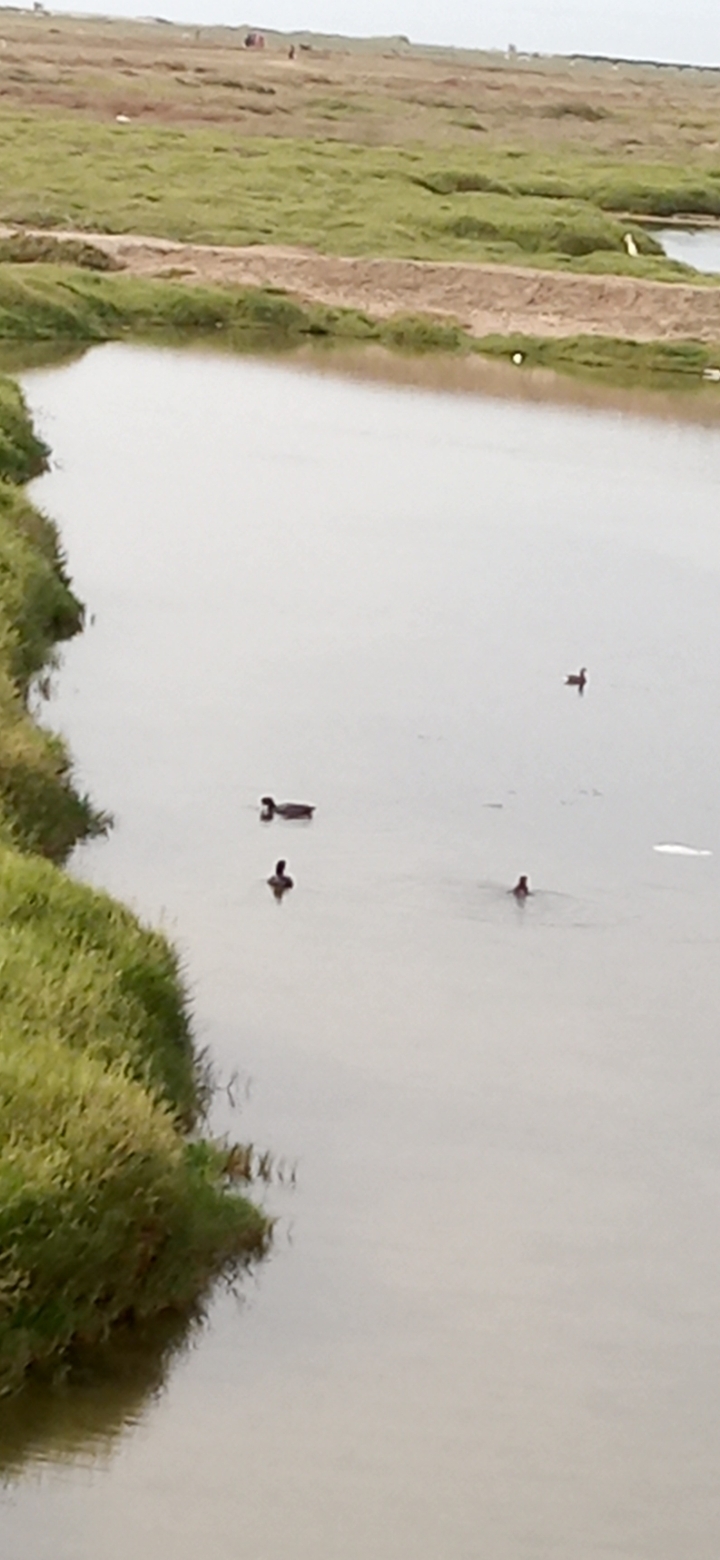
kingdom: Animalia
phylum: Chordata
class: Aves
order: Gruiformes
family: Rallidae
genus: Fulica
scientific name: Fulica ardesiaca
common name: Andean coot
